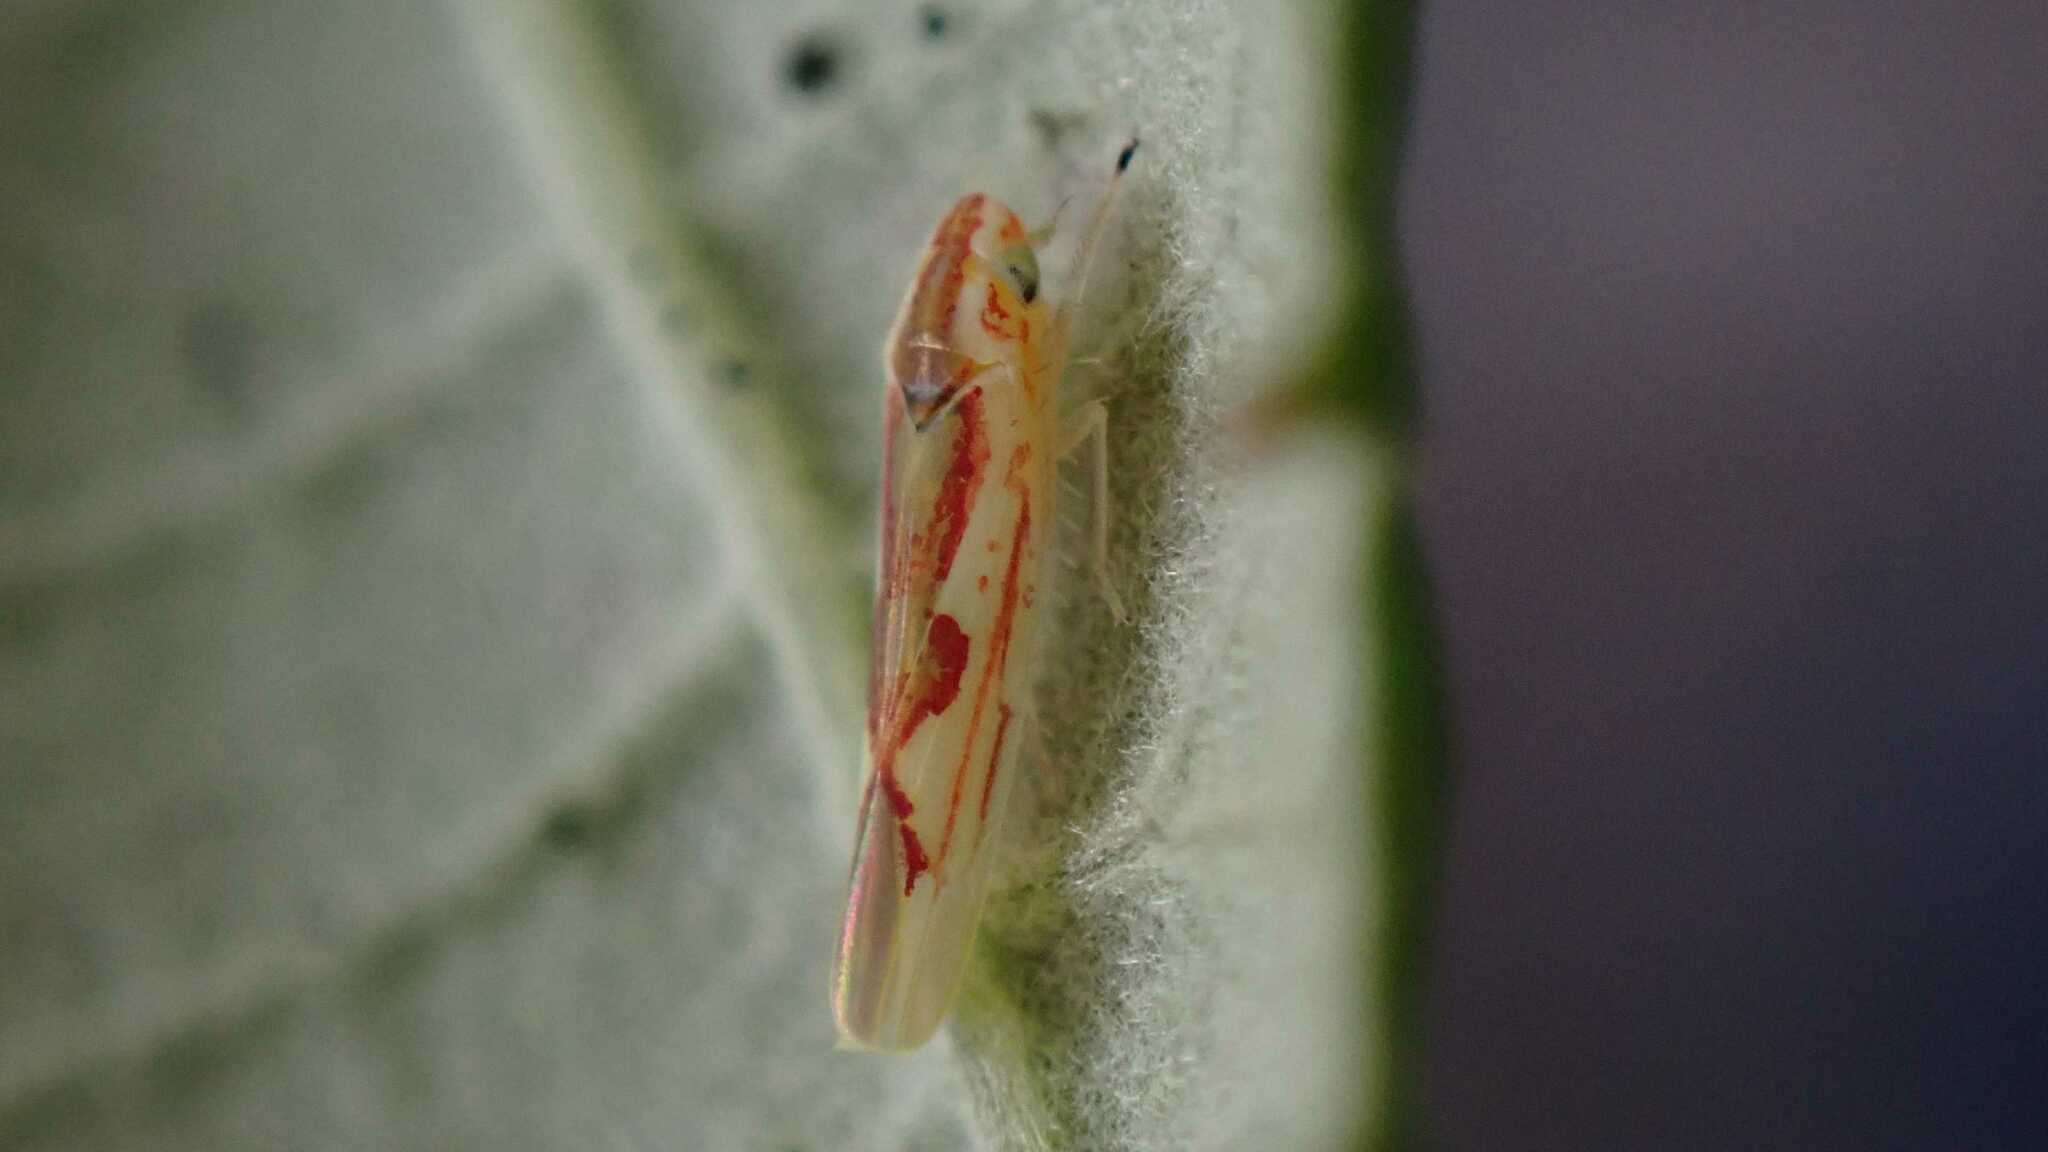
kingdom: Animalia
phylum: Arthropoda
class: Insecta
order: Hemiptera
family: Cicadellidae
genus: Zygina
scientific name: Zygina angusta
